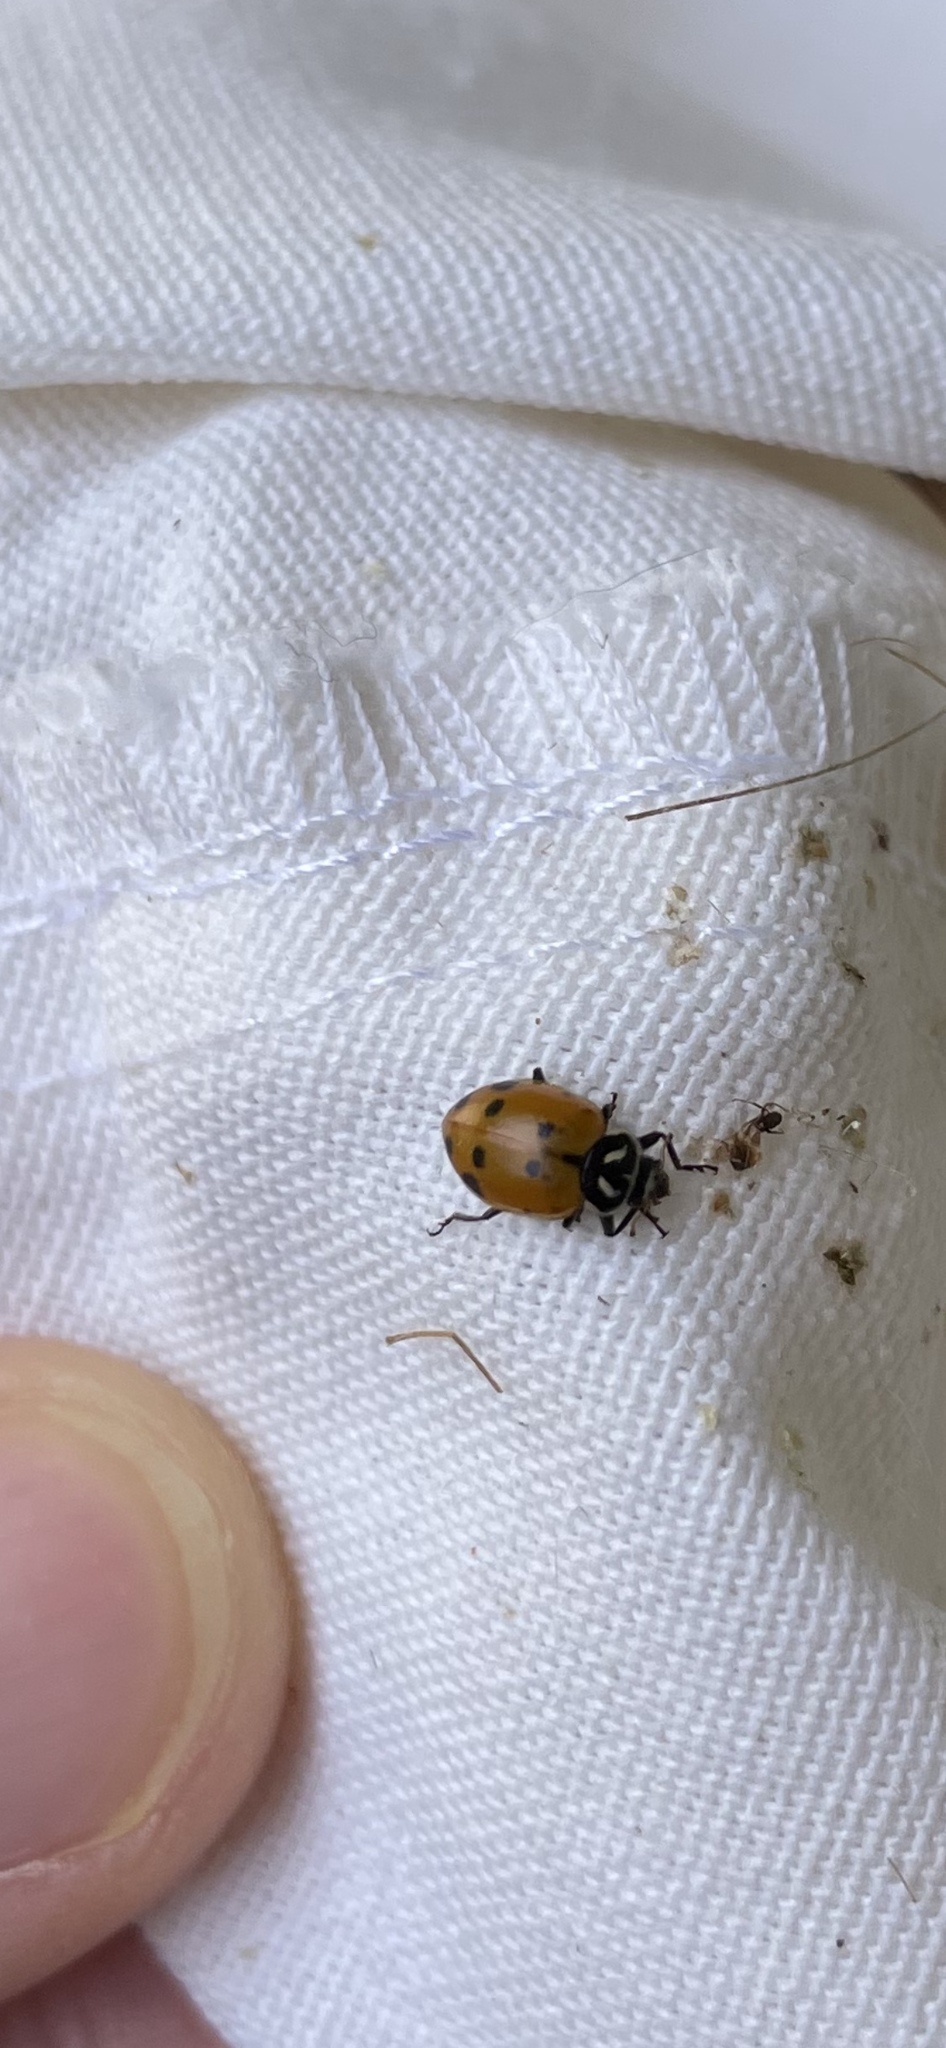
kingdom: Animalia
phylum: Arthropoda
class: Insecta
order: Coleoptera
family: Coccinellidae
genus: Hippodamia
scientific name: Hippodamia convergens
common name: Convergent lady beetle
